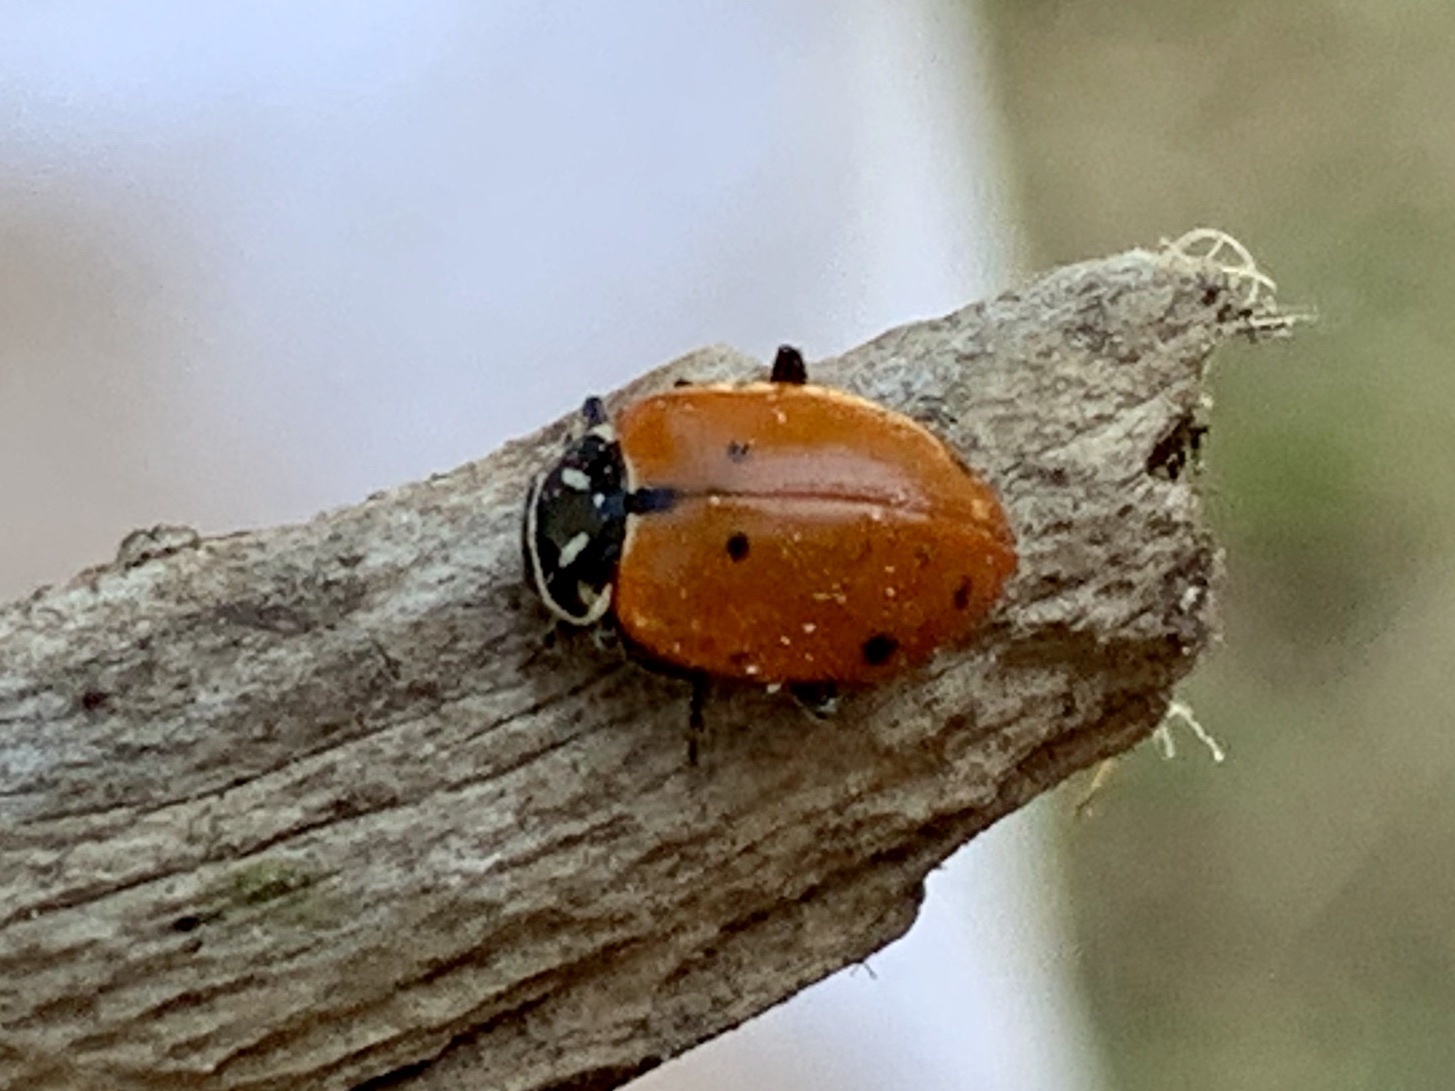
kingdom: Animalia
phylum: Arthropoda
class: Insecta
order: Coleoptera
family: Coccinellidae
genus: Hippodamia
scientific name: Hippodamia convergens
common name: Convergent lady beetle
